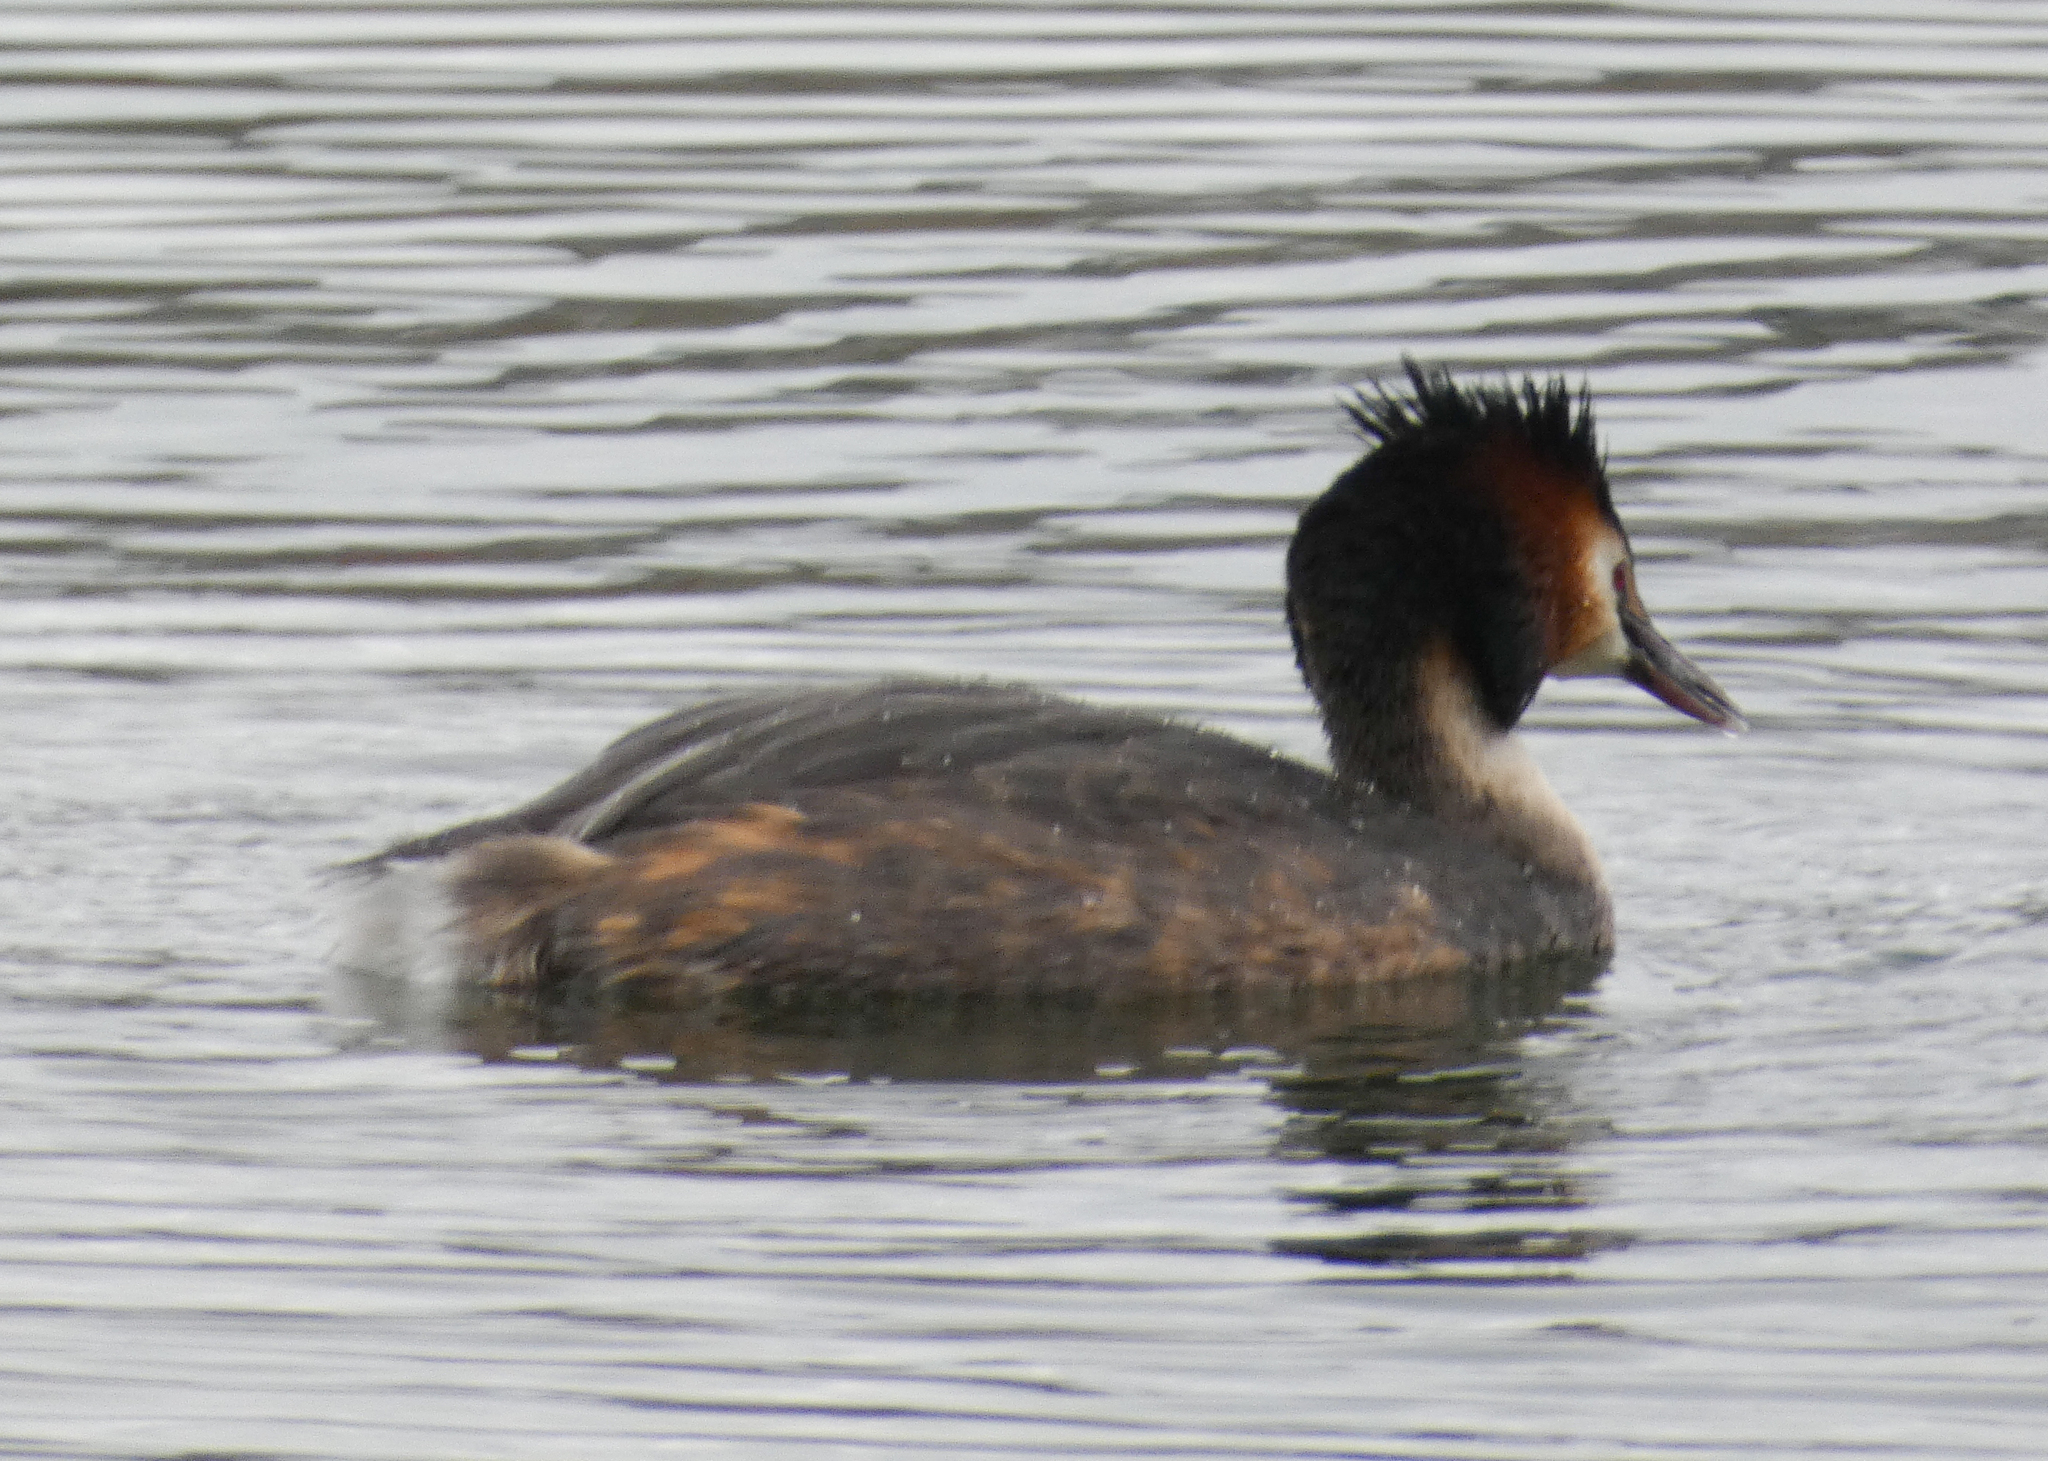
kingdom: Animalia
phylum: Chordata
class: Aves
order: Podicipediformes
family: Podicipedidae
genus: Podiceps
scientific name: Podiceps cristatus
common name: Great crested grebe
